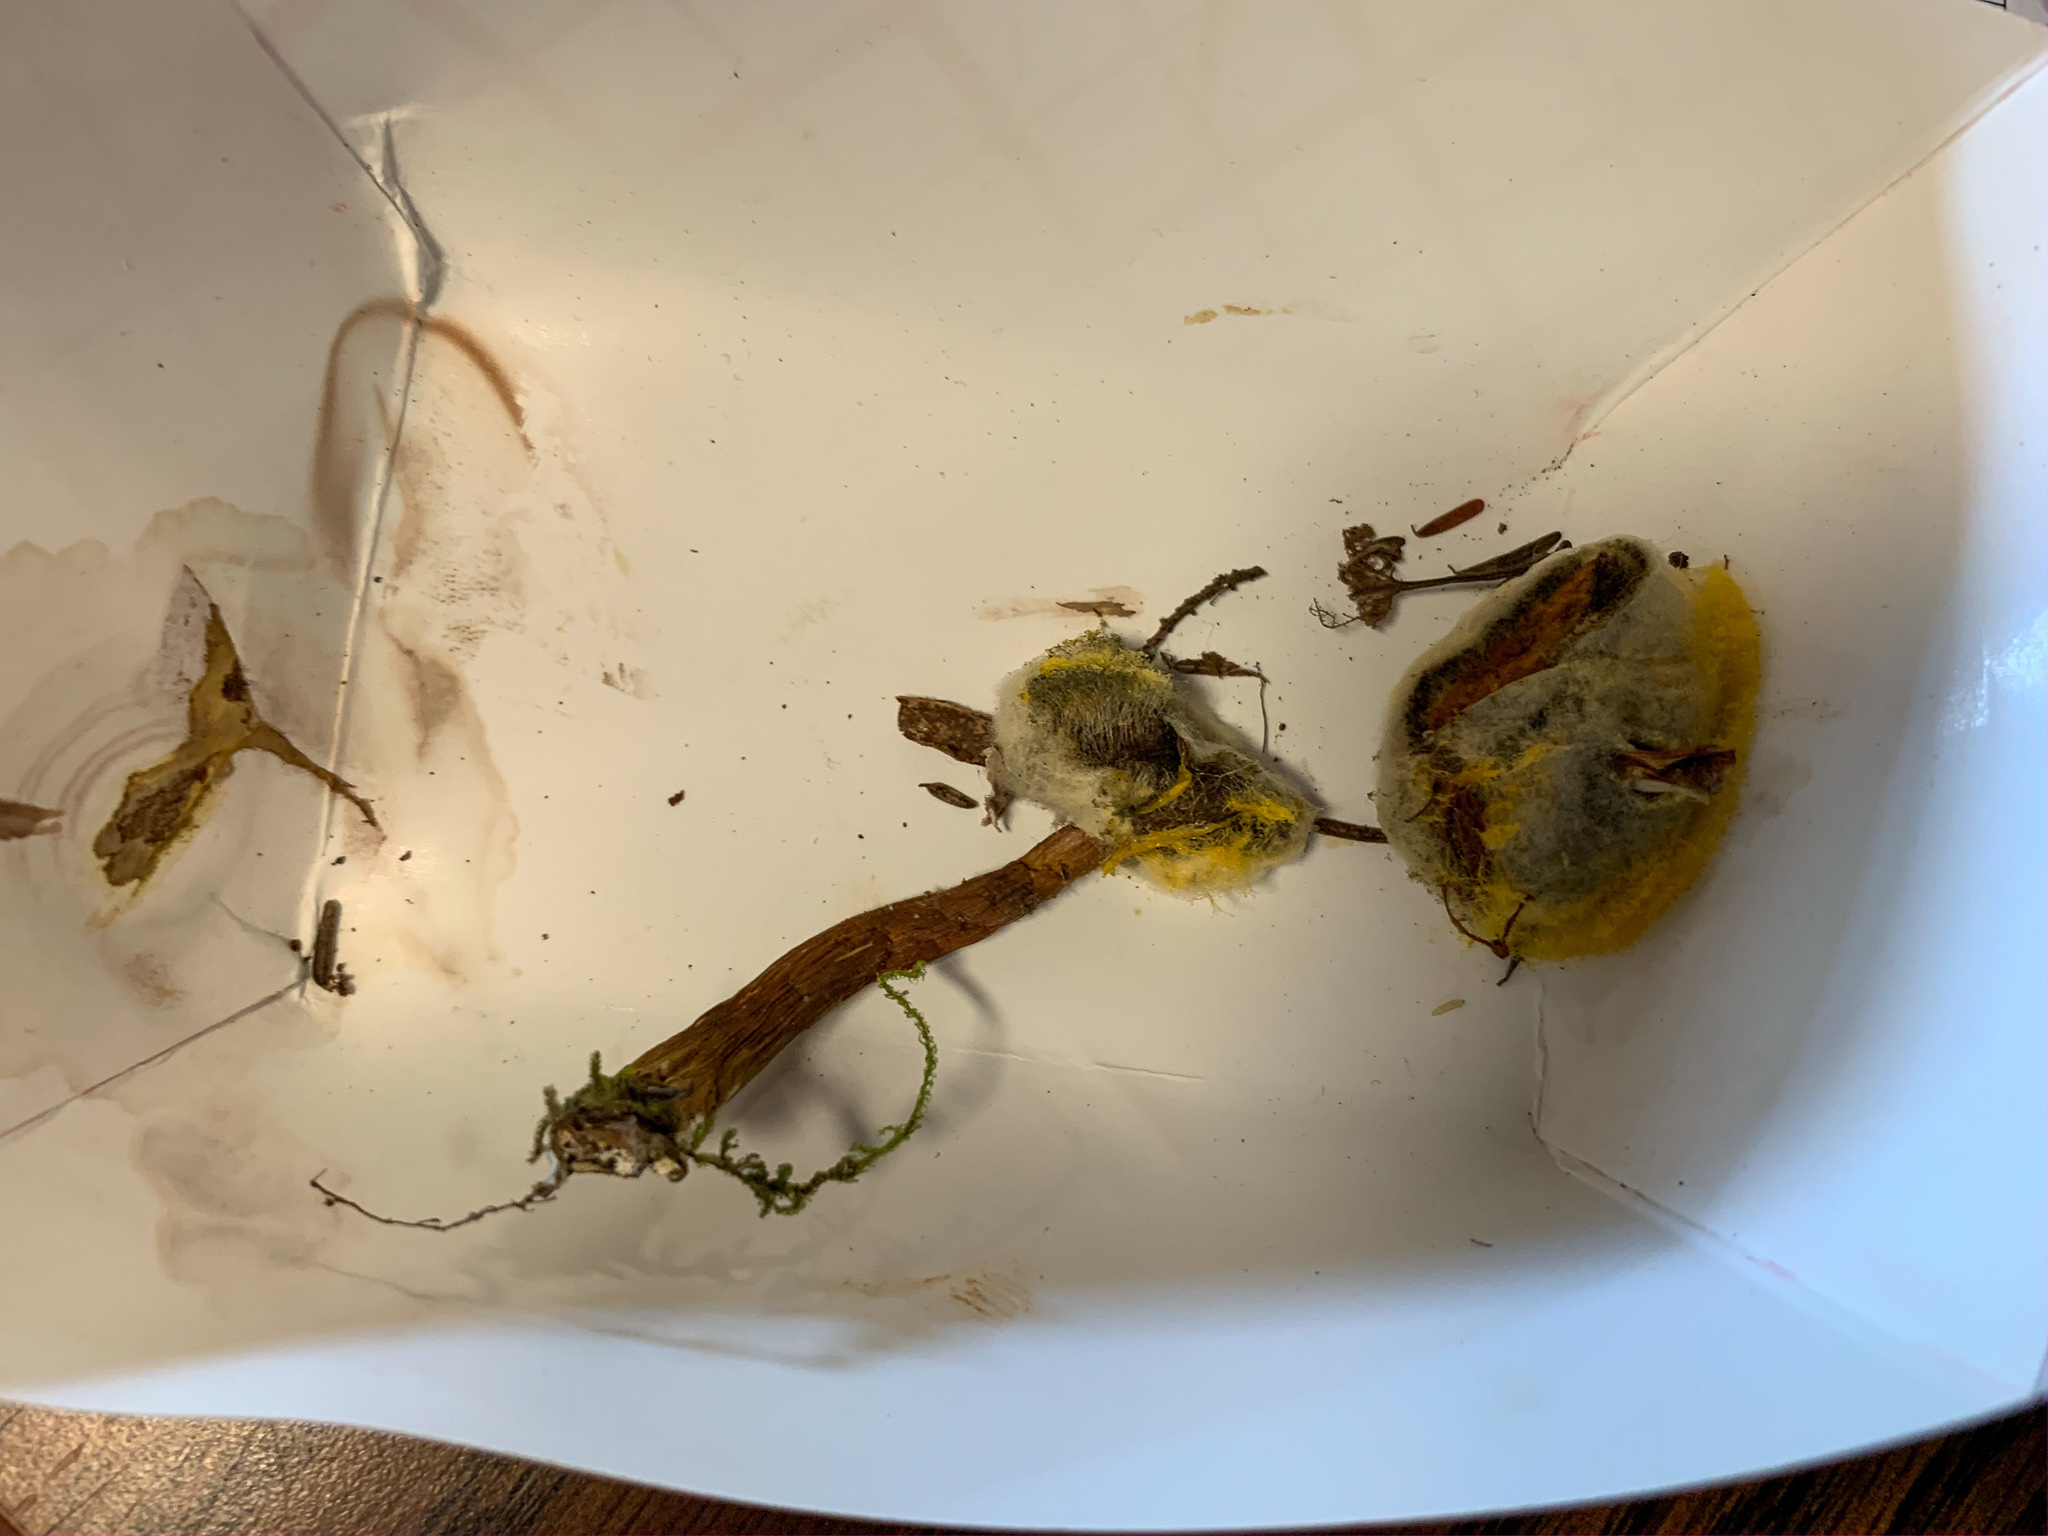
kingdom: Fungi
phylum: Mucoromycota
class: Mucoromycetes
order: Mucorales
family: Mucoraceae
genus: Dicranophora
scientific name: Dicranophora fulva
